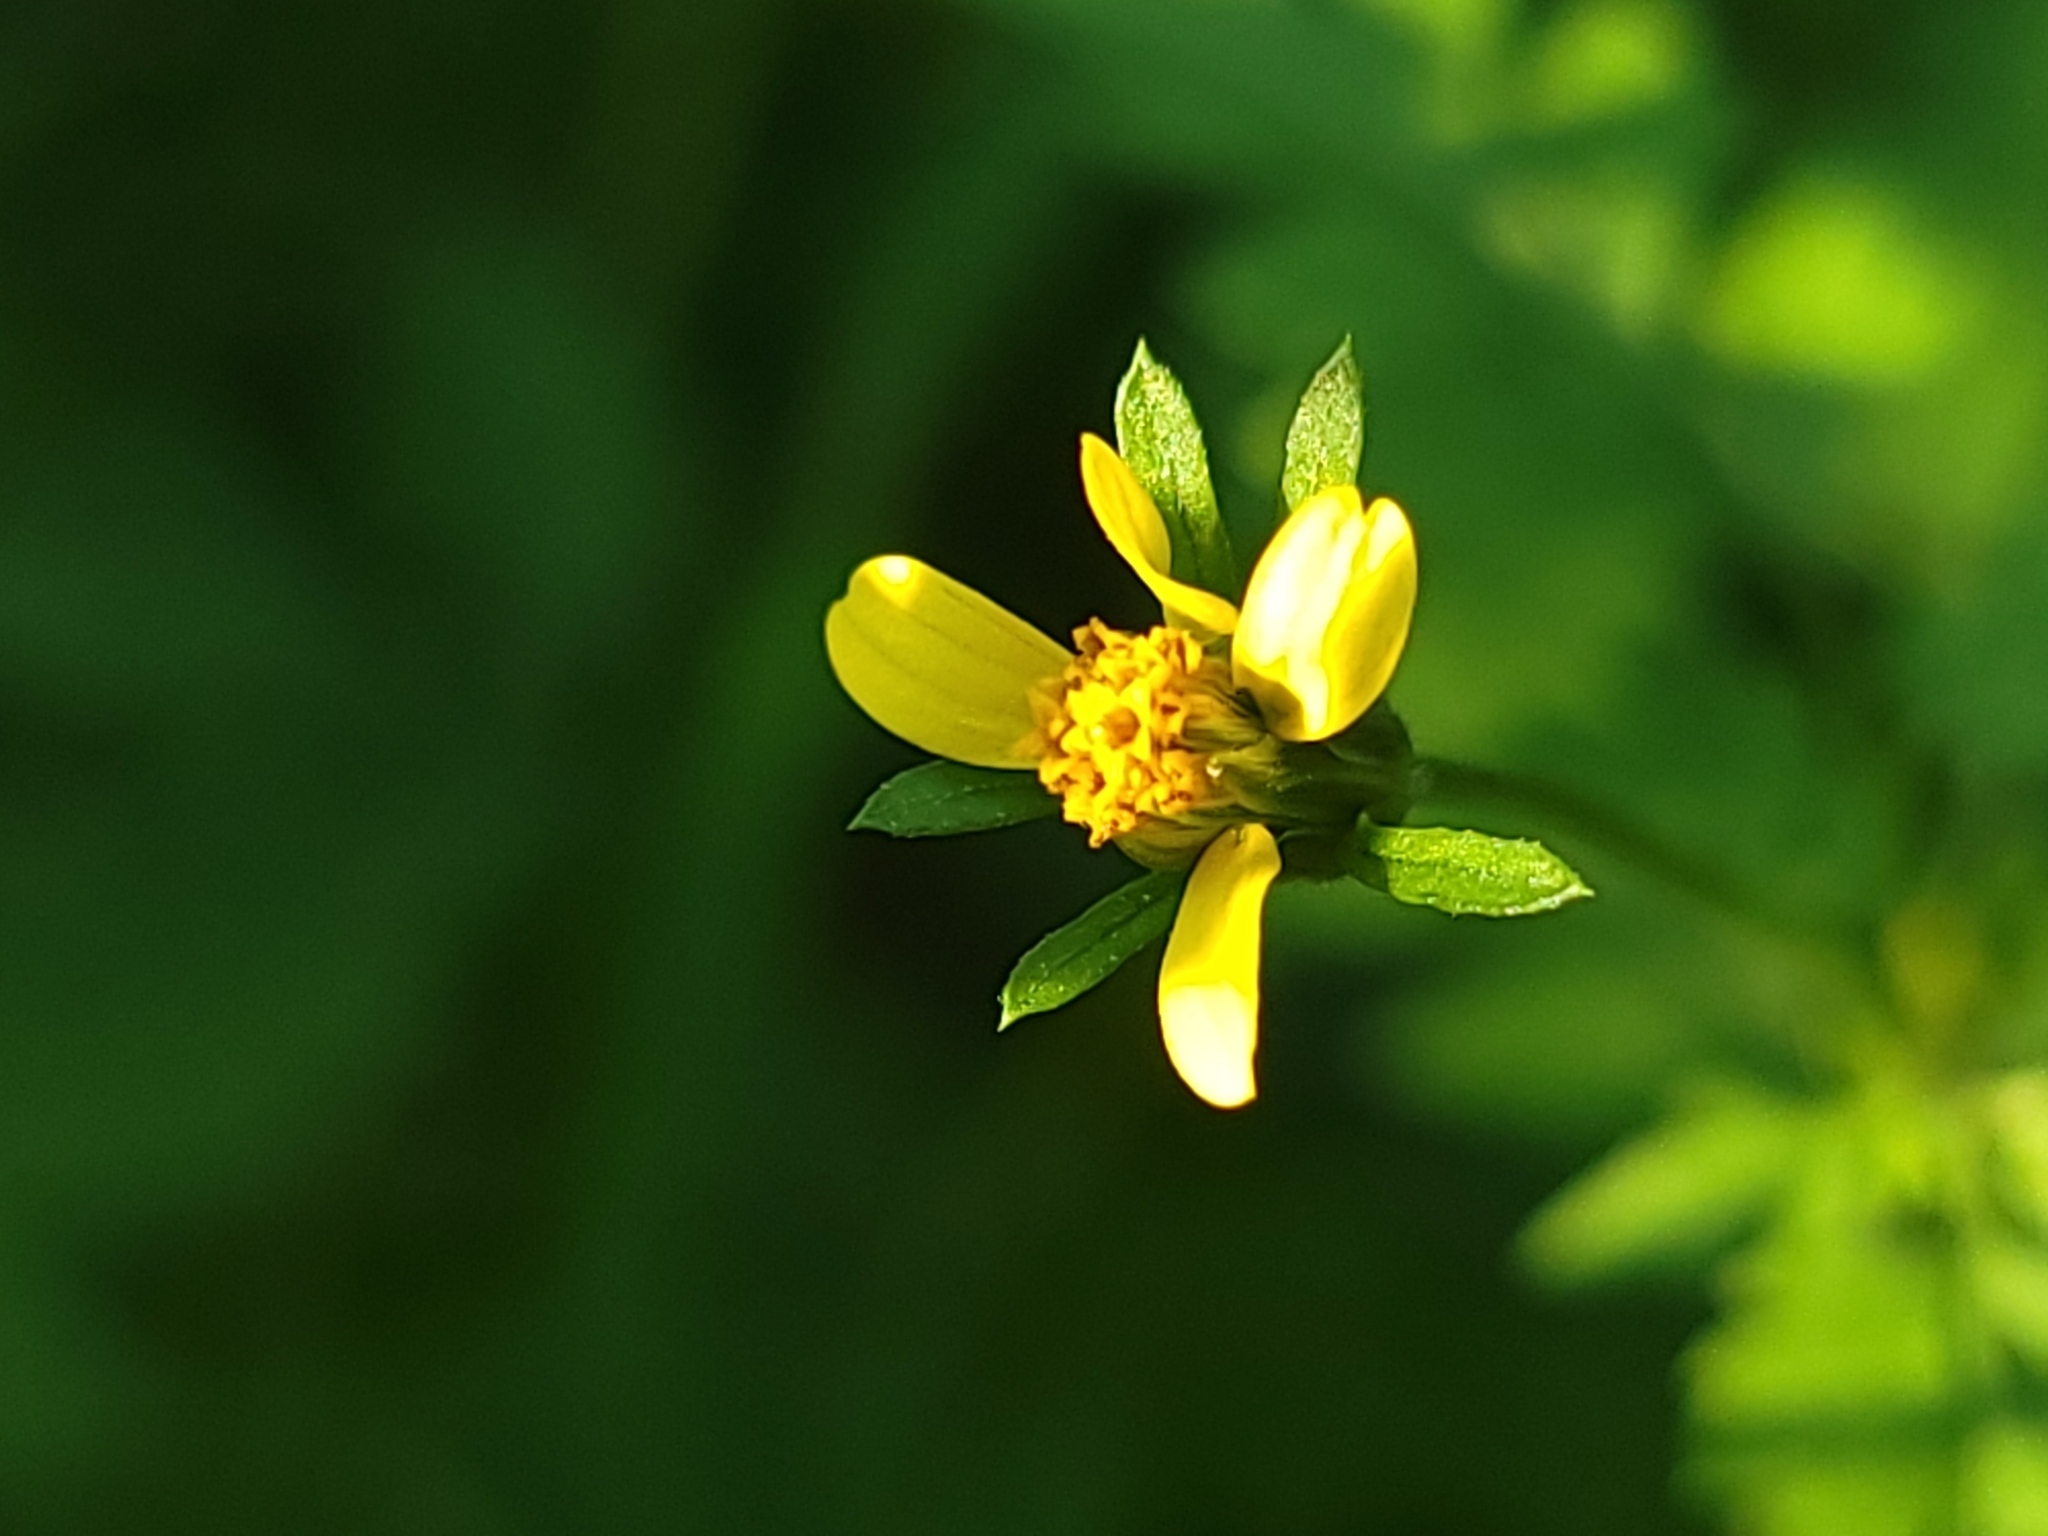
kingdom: Plantae
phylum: Tracheophyta
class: Magnoliopsida
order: Asterales
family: Asteraceae
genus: Bidens
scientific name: Bidens bipinnata
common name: Spanish-needles
